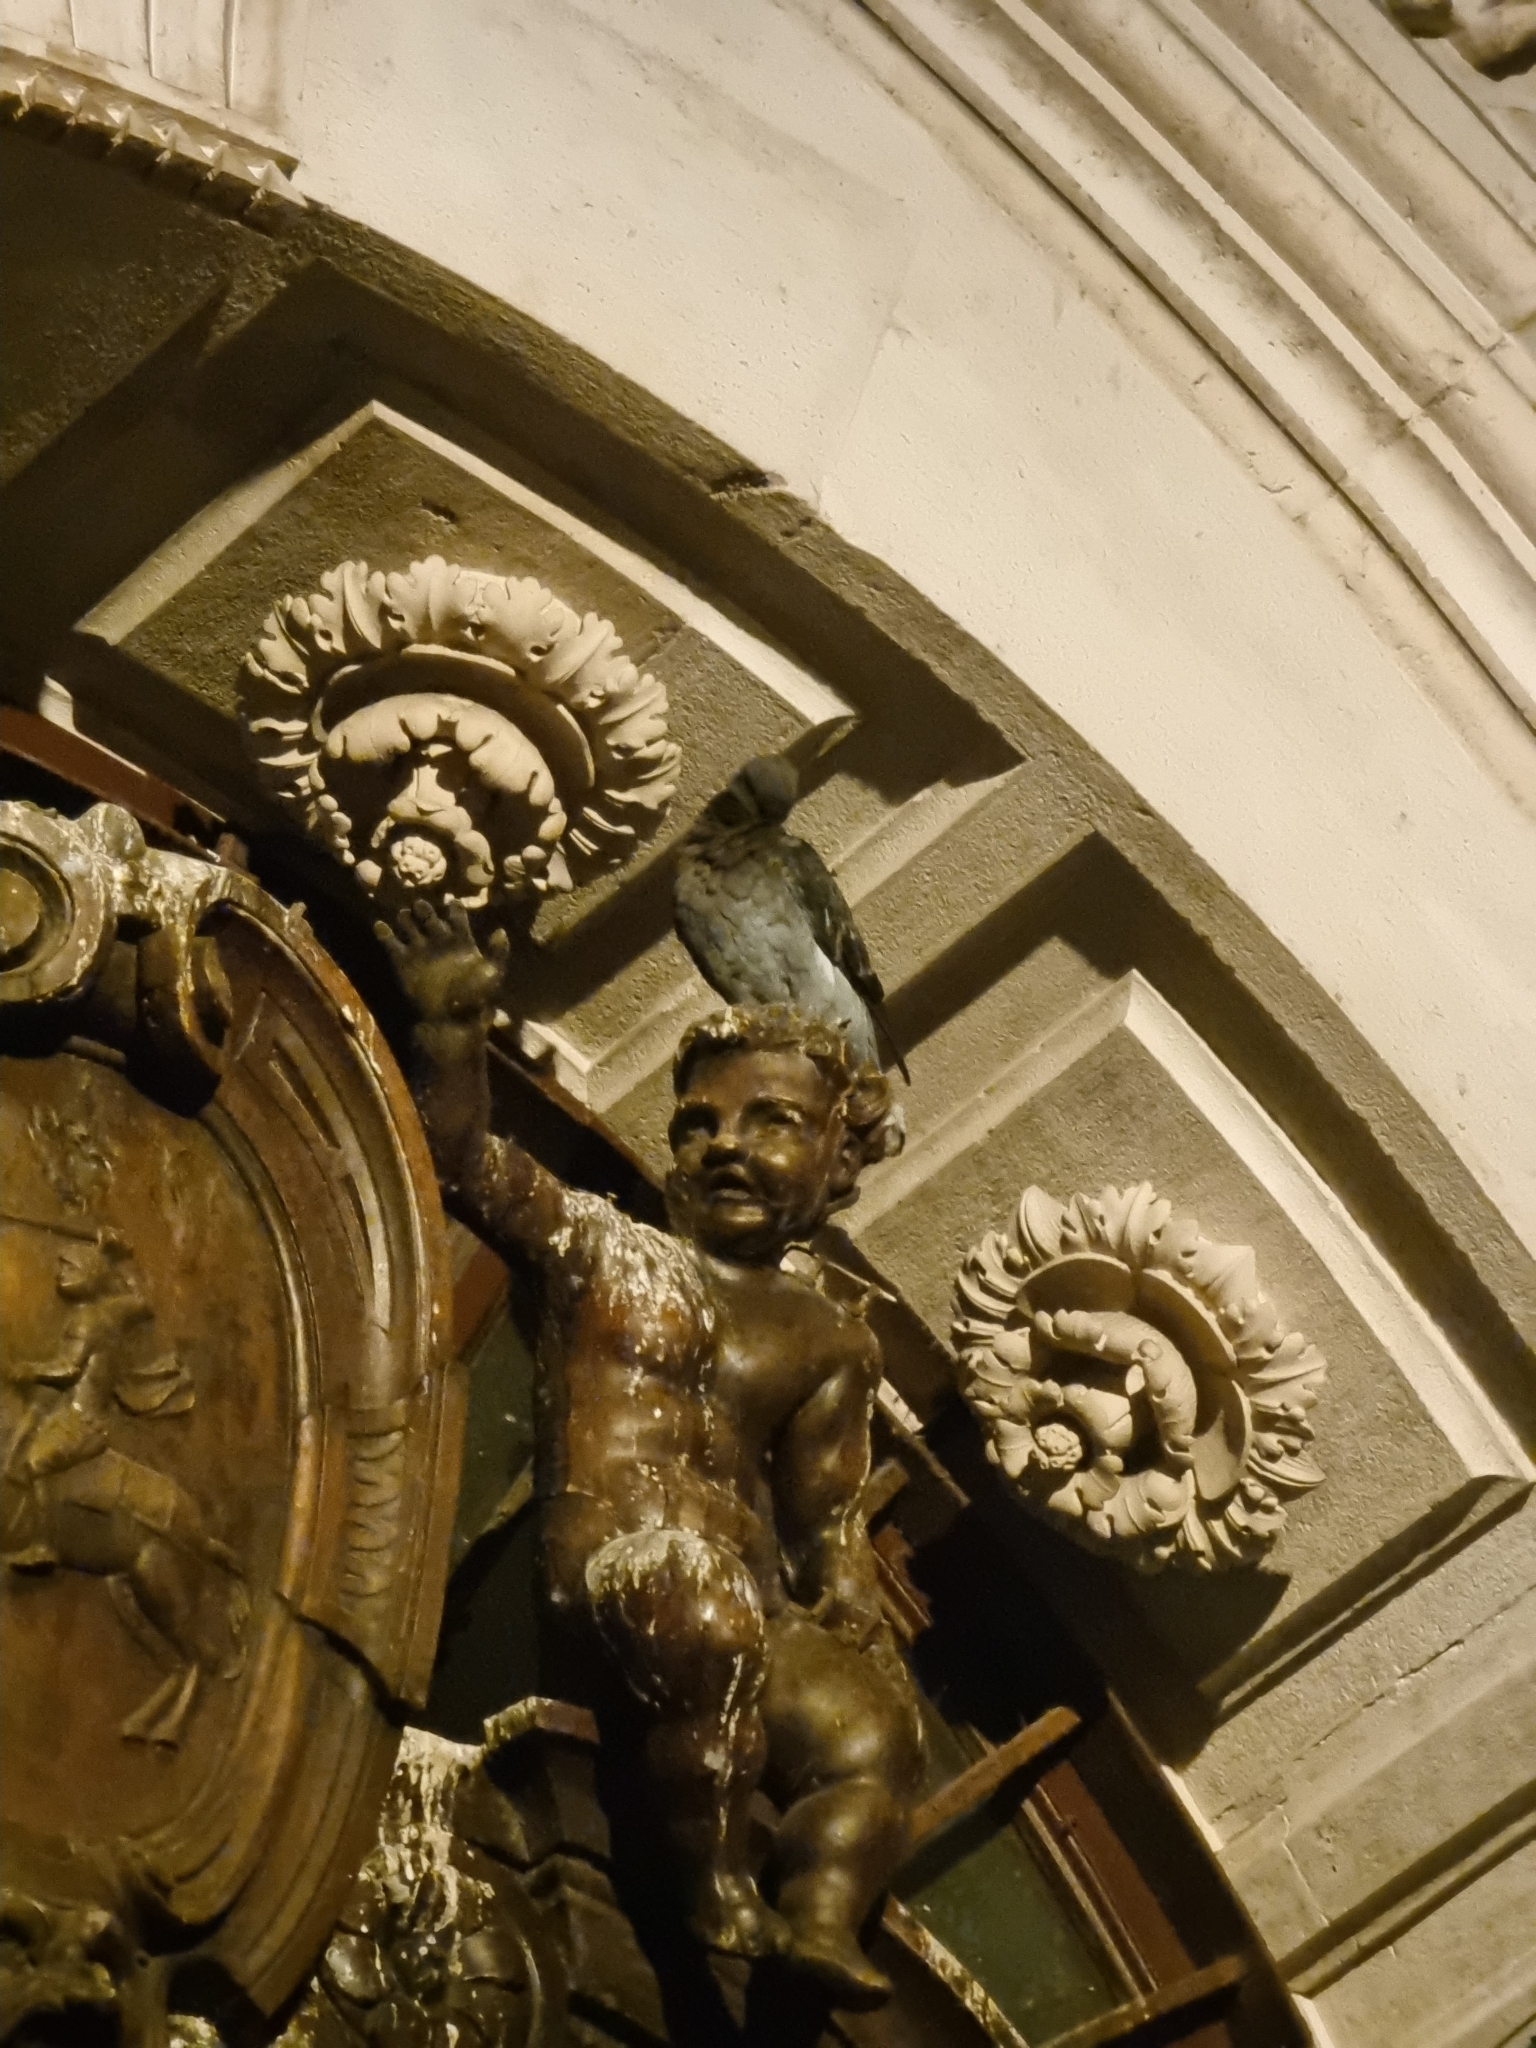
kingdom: Animalia
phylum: Chordata
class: Aves
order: Columbiformes
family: Columbidae
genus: Columba
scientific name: Columba livia
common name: Rock pigeon
